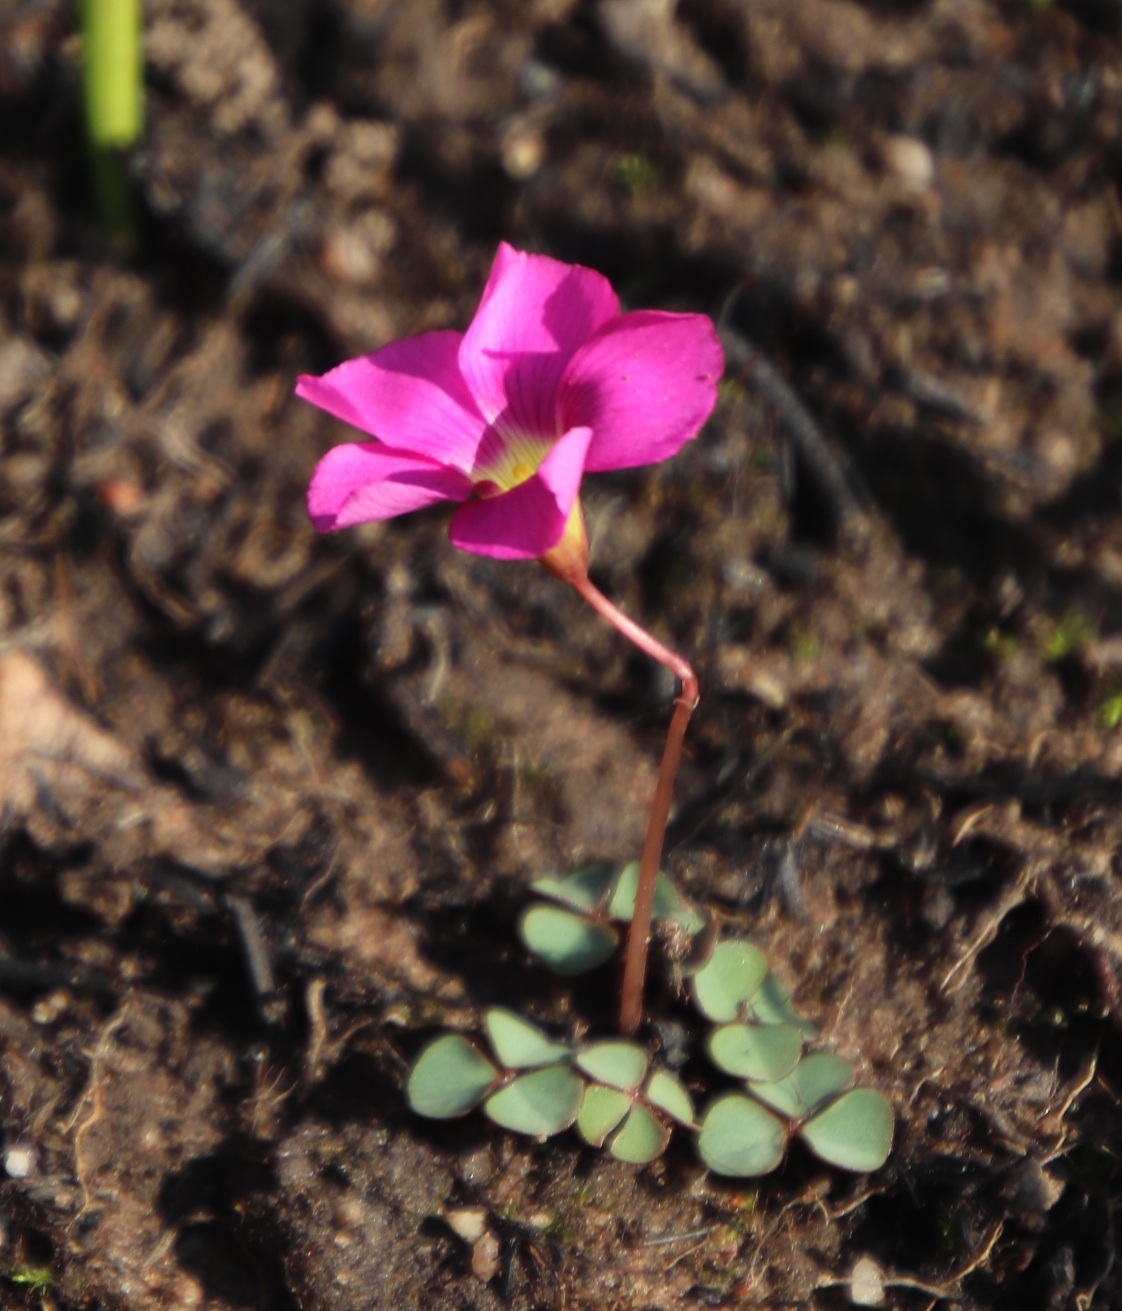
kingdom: Plantae
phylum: Tracheophyta
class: Magnoliopsida
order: Oxalidales
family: Oxalidaceae
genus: Oxalis
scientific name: Oxalis commutata
